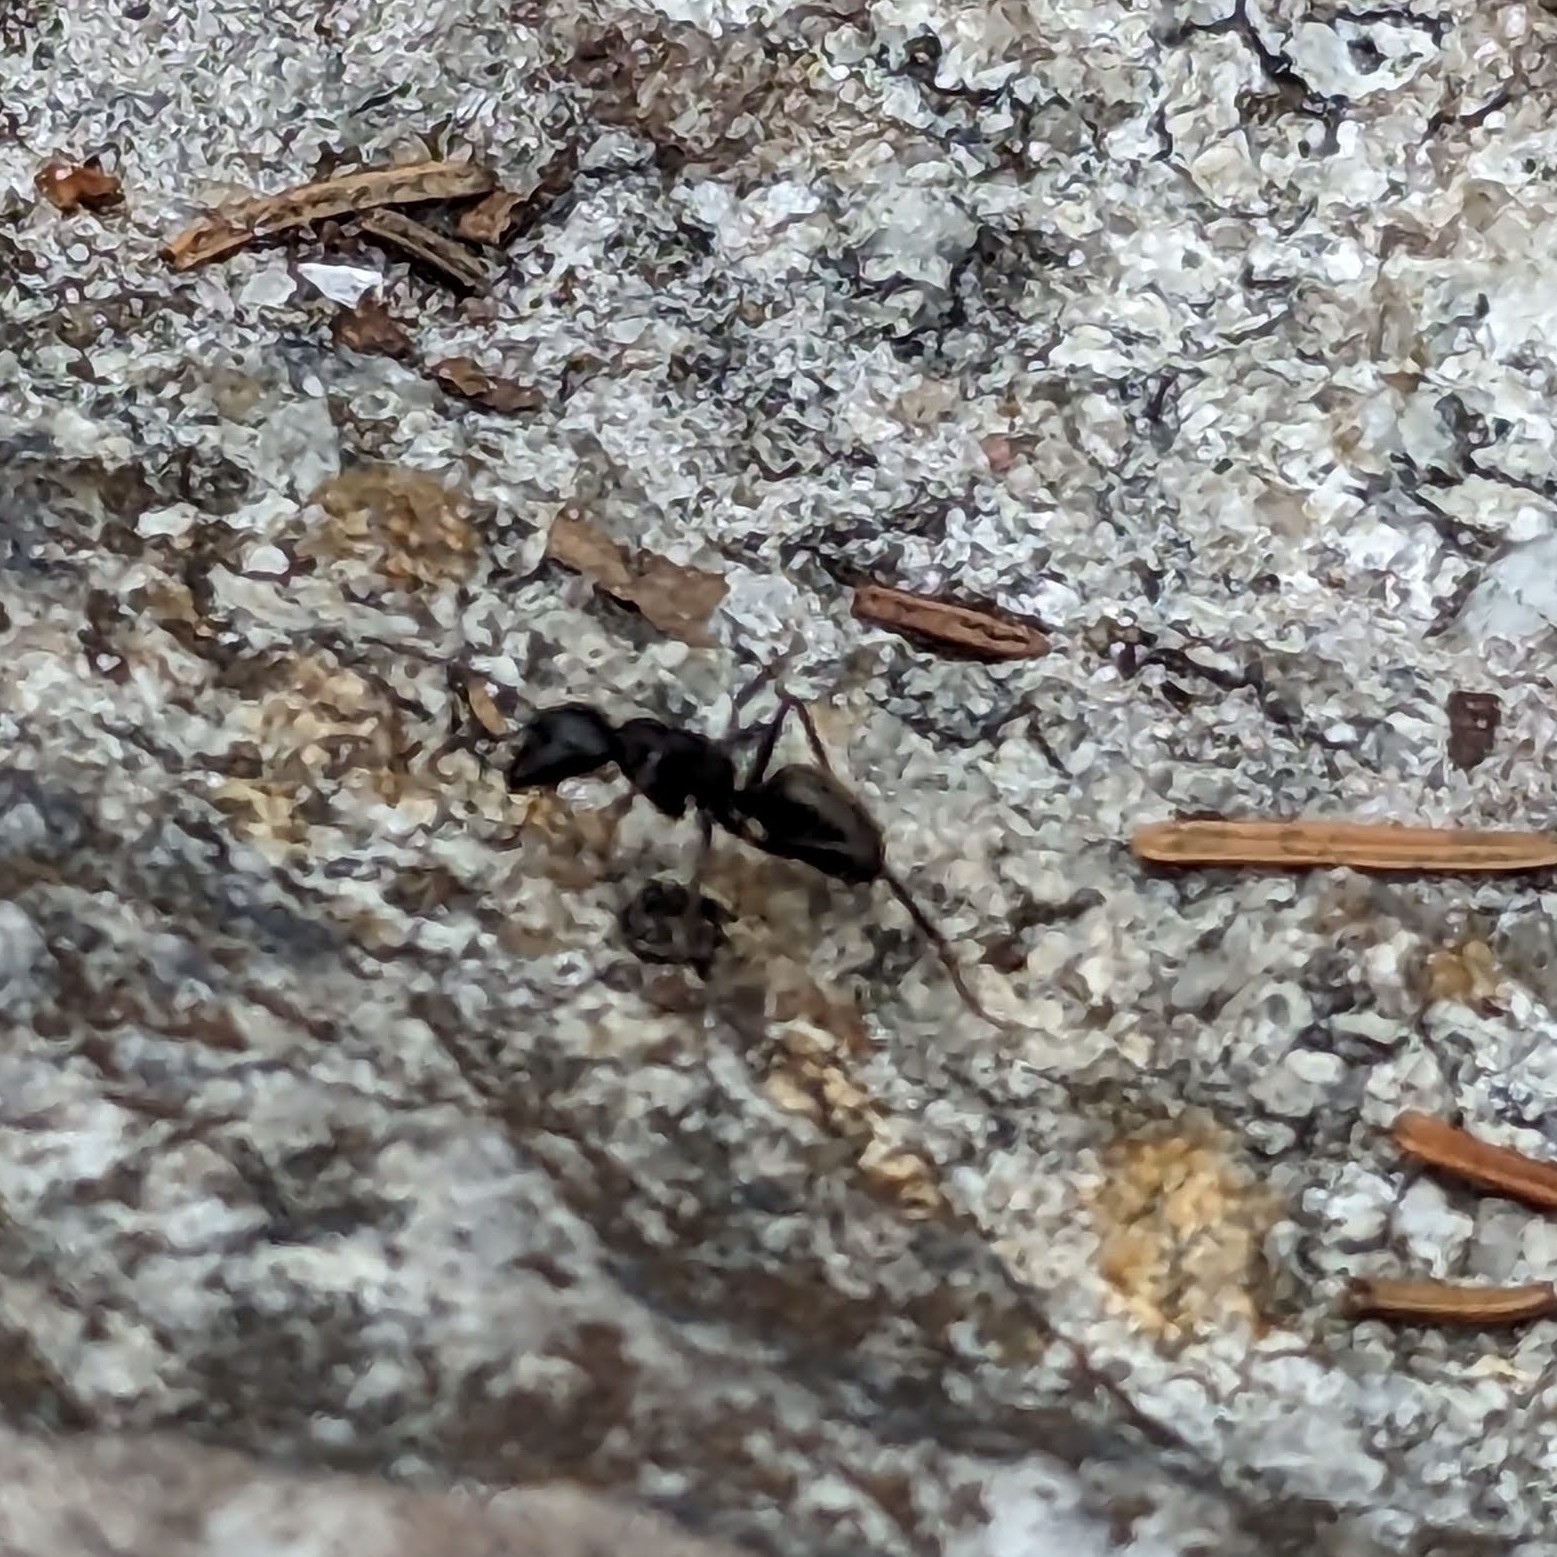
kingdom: Animalia
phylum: Arthropoda
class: Insecta
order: Hymenoptera
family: Formicidae
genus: Camponotus
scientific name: Camponotus pennsylvanicus
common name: Black carpenter ant
